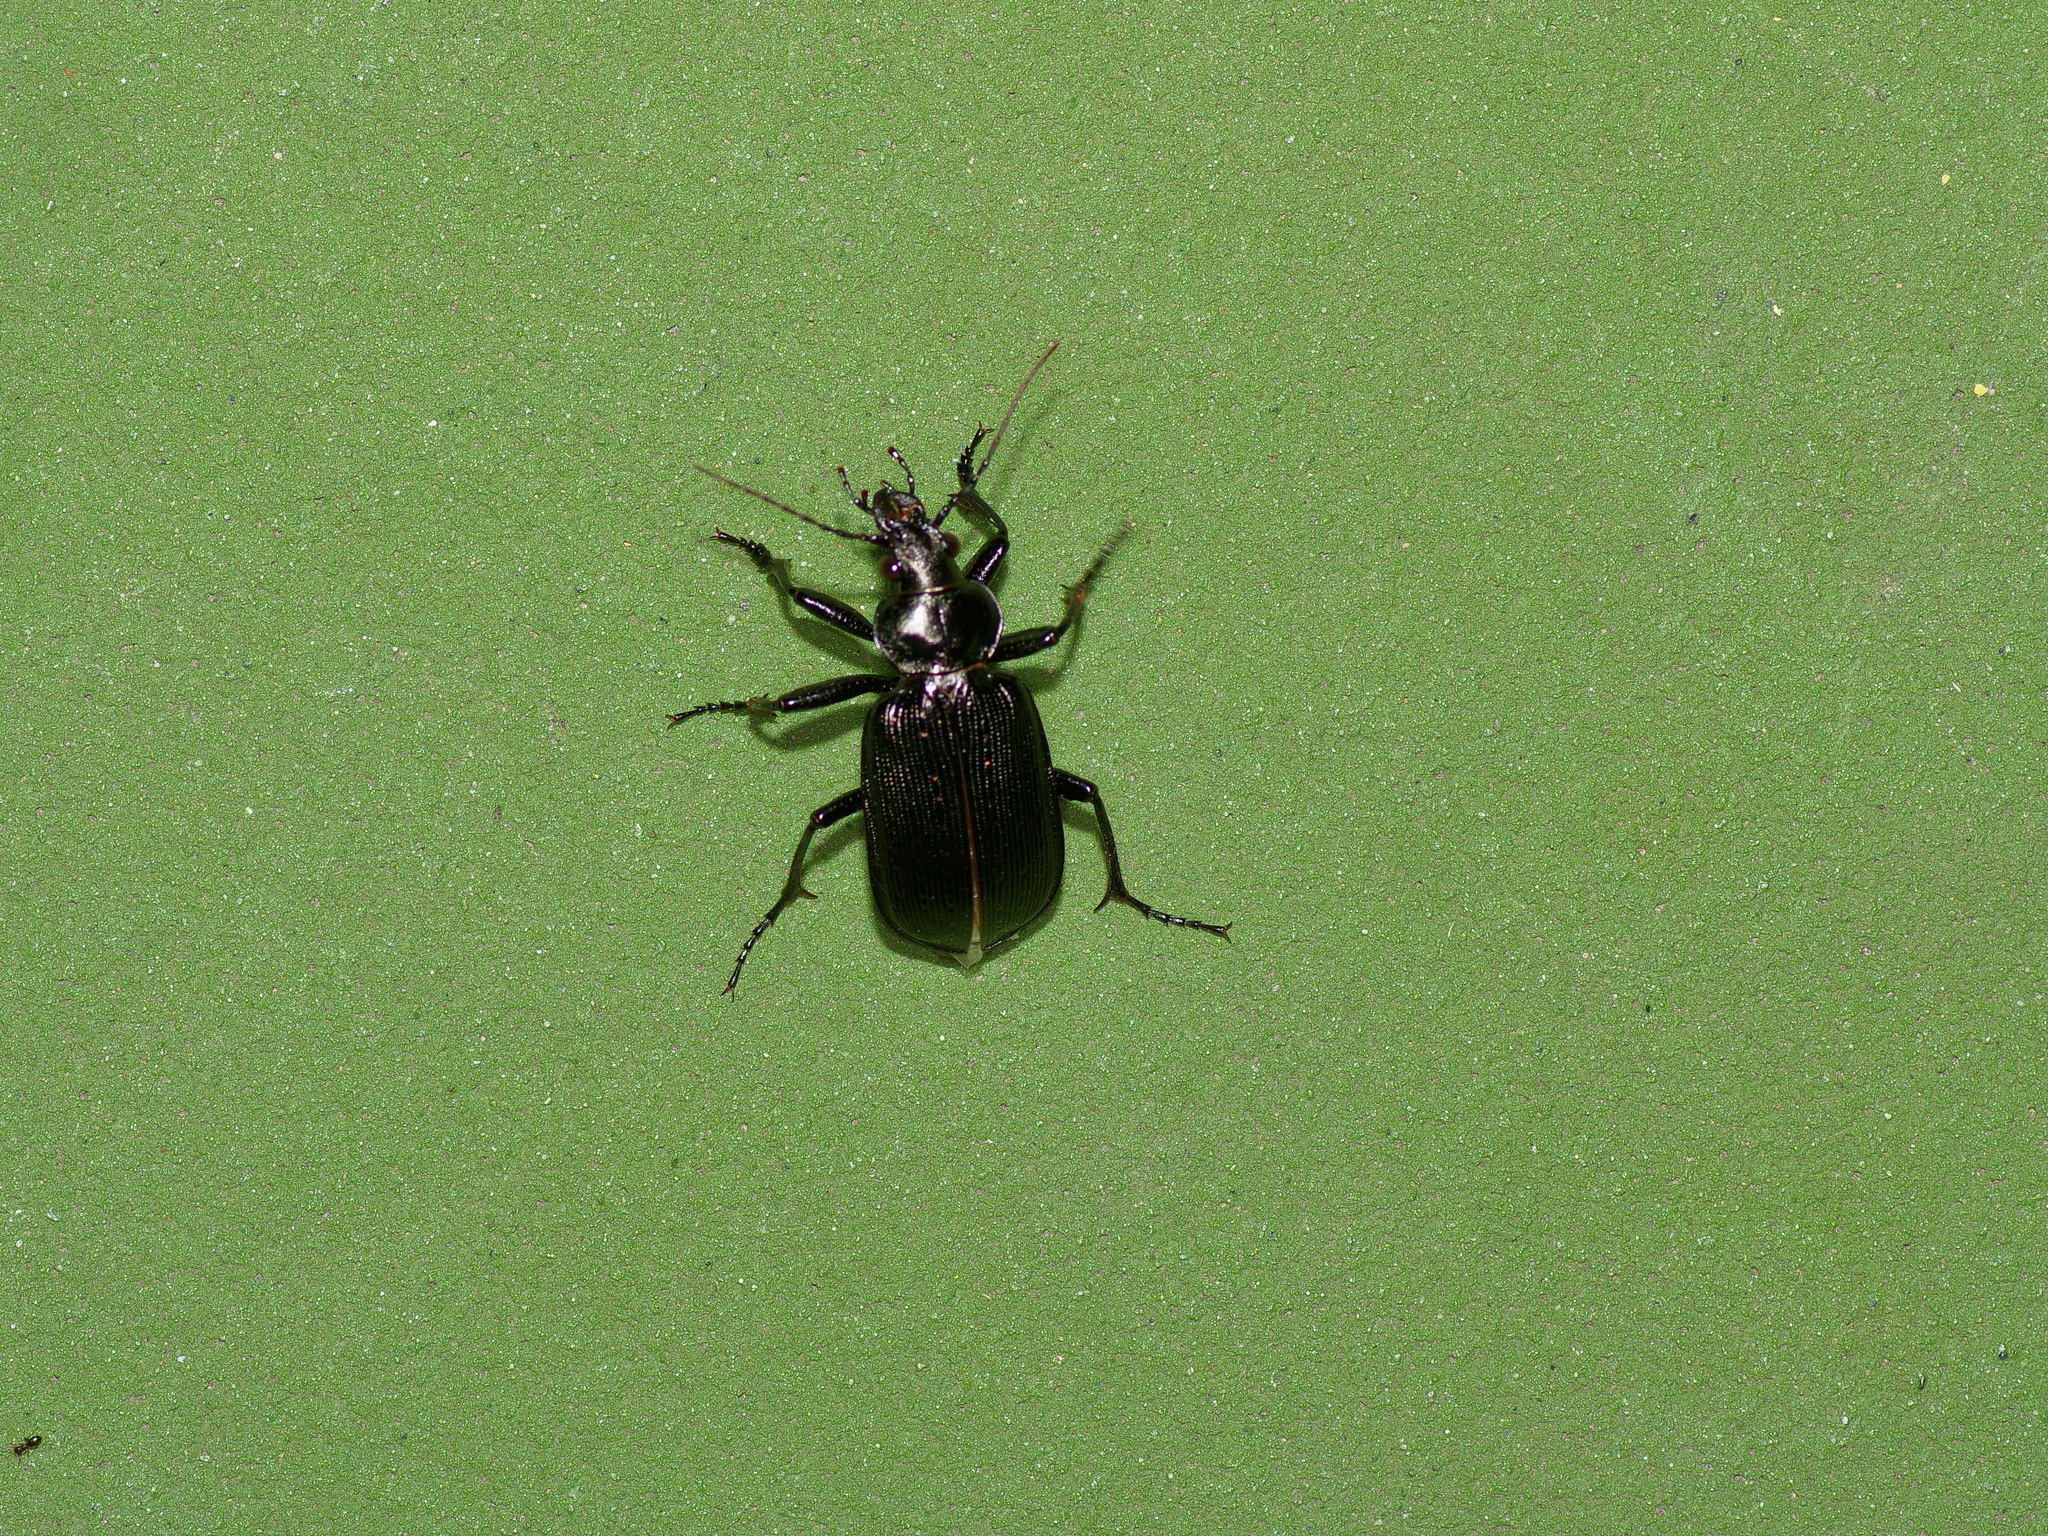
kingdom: Animalia
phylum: Arthropoda
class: Insecta
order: Coleoptera
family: Carabidae
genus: Calosoma
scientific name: Calosoma sayi
